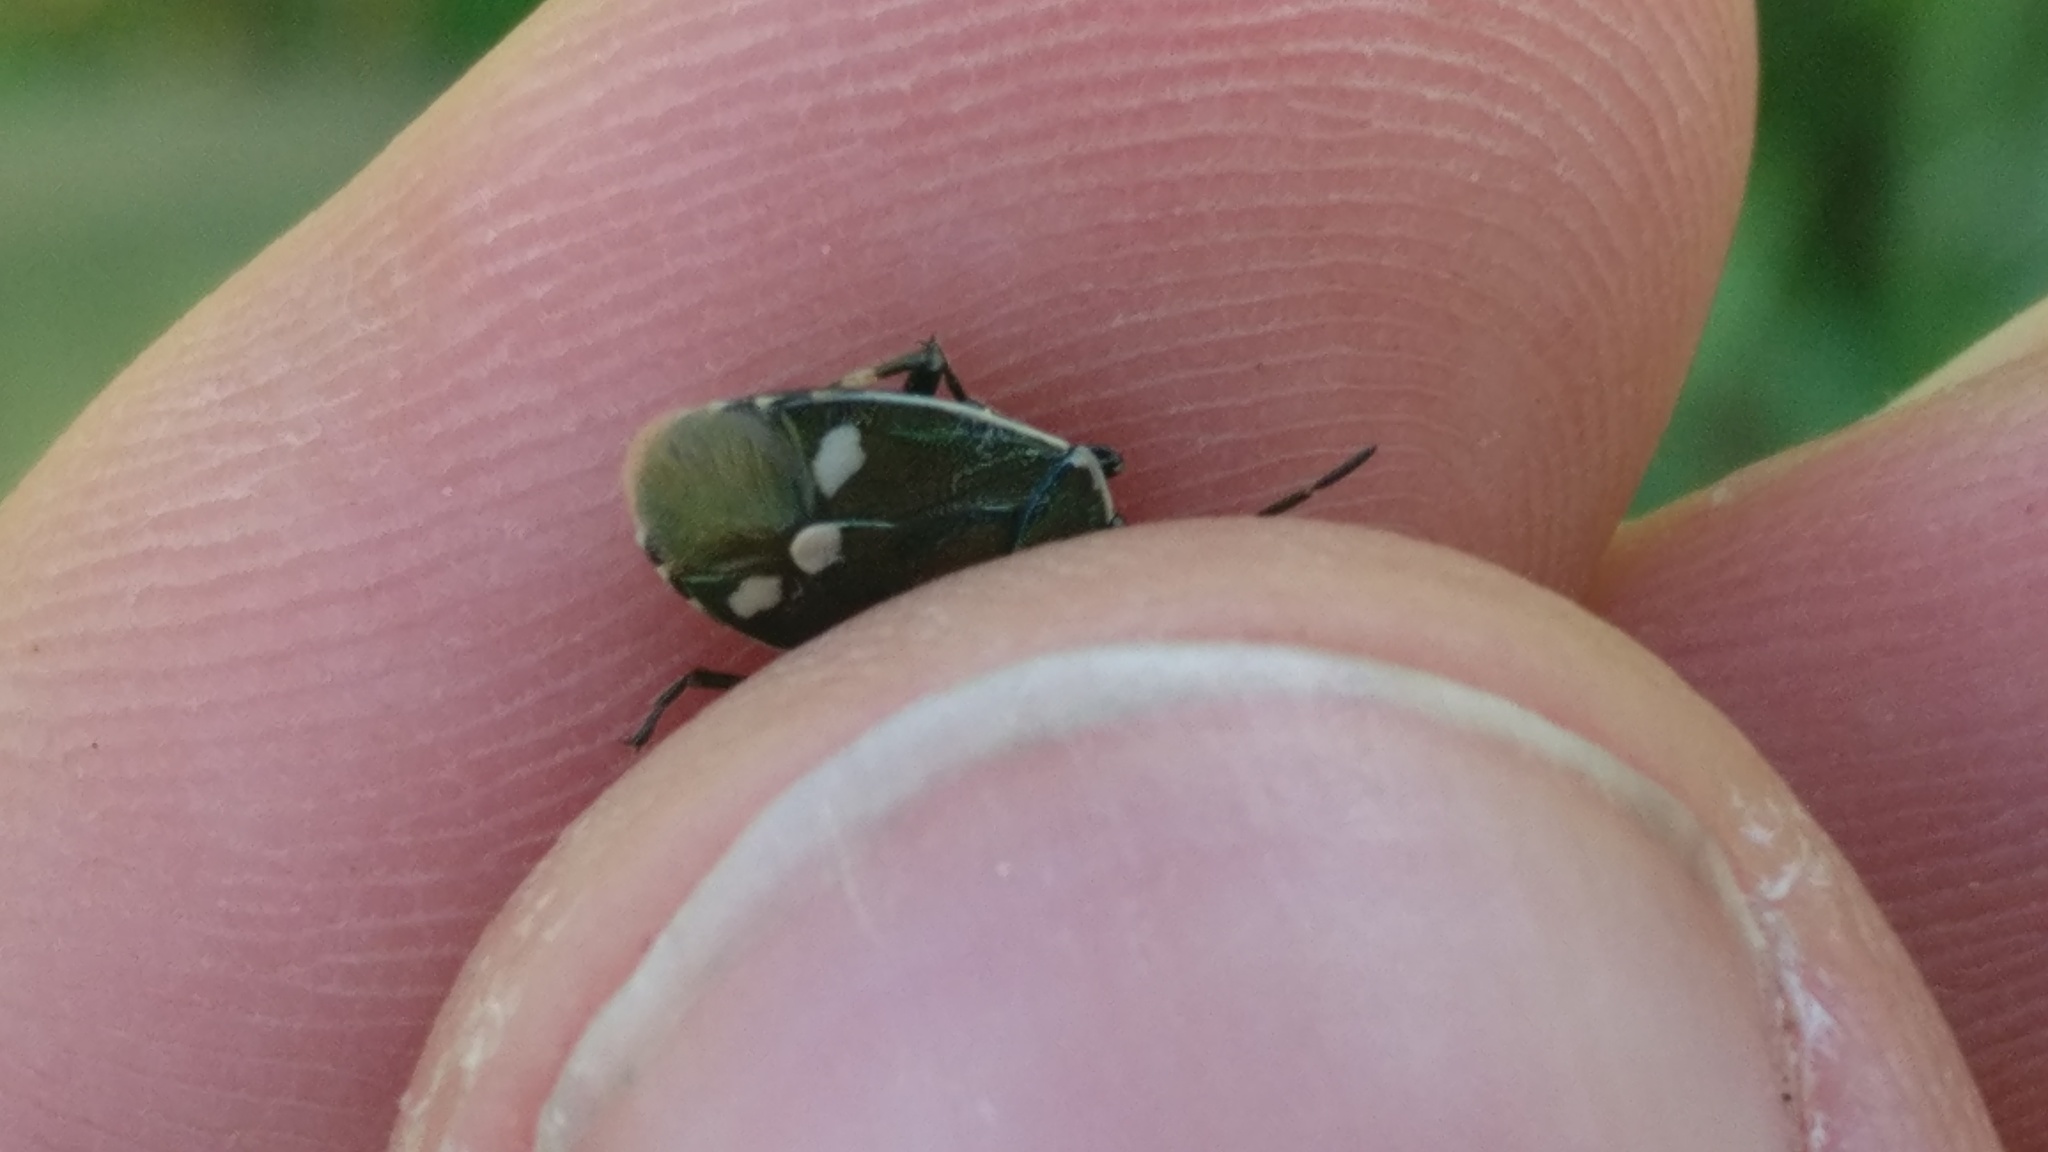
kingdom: Animalia
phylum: Arthropoda
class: Insecta
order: Hemiptera
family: Pentatomidae
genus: Eurydema
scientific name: Eurydema oleracea
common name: Cabbage bug
